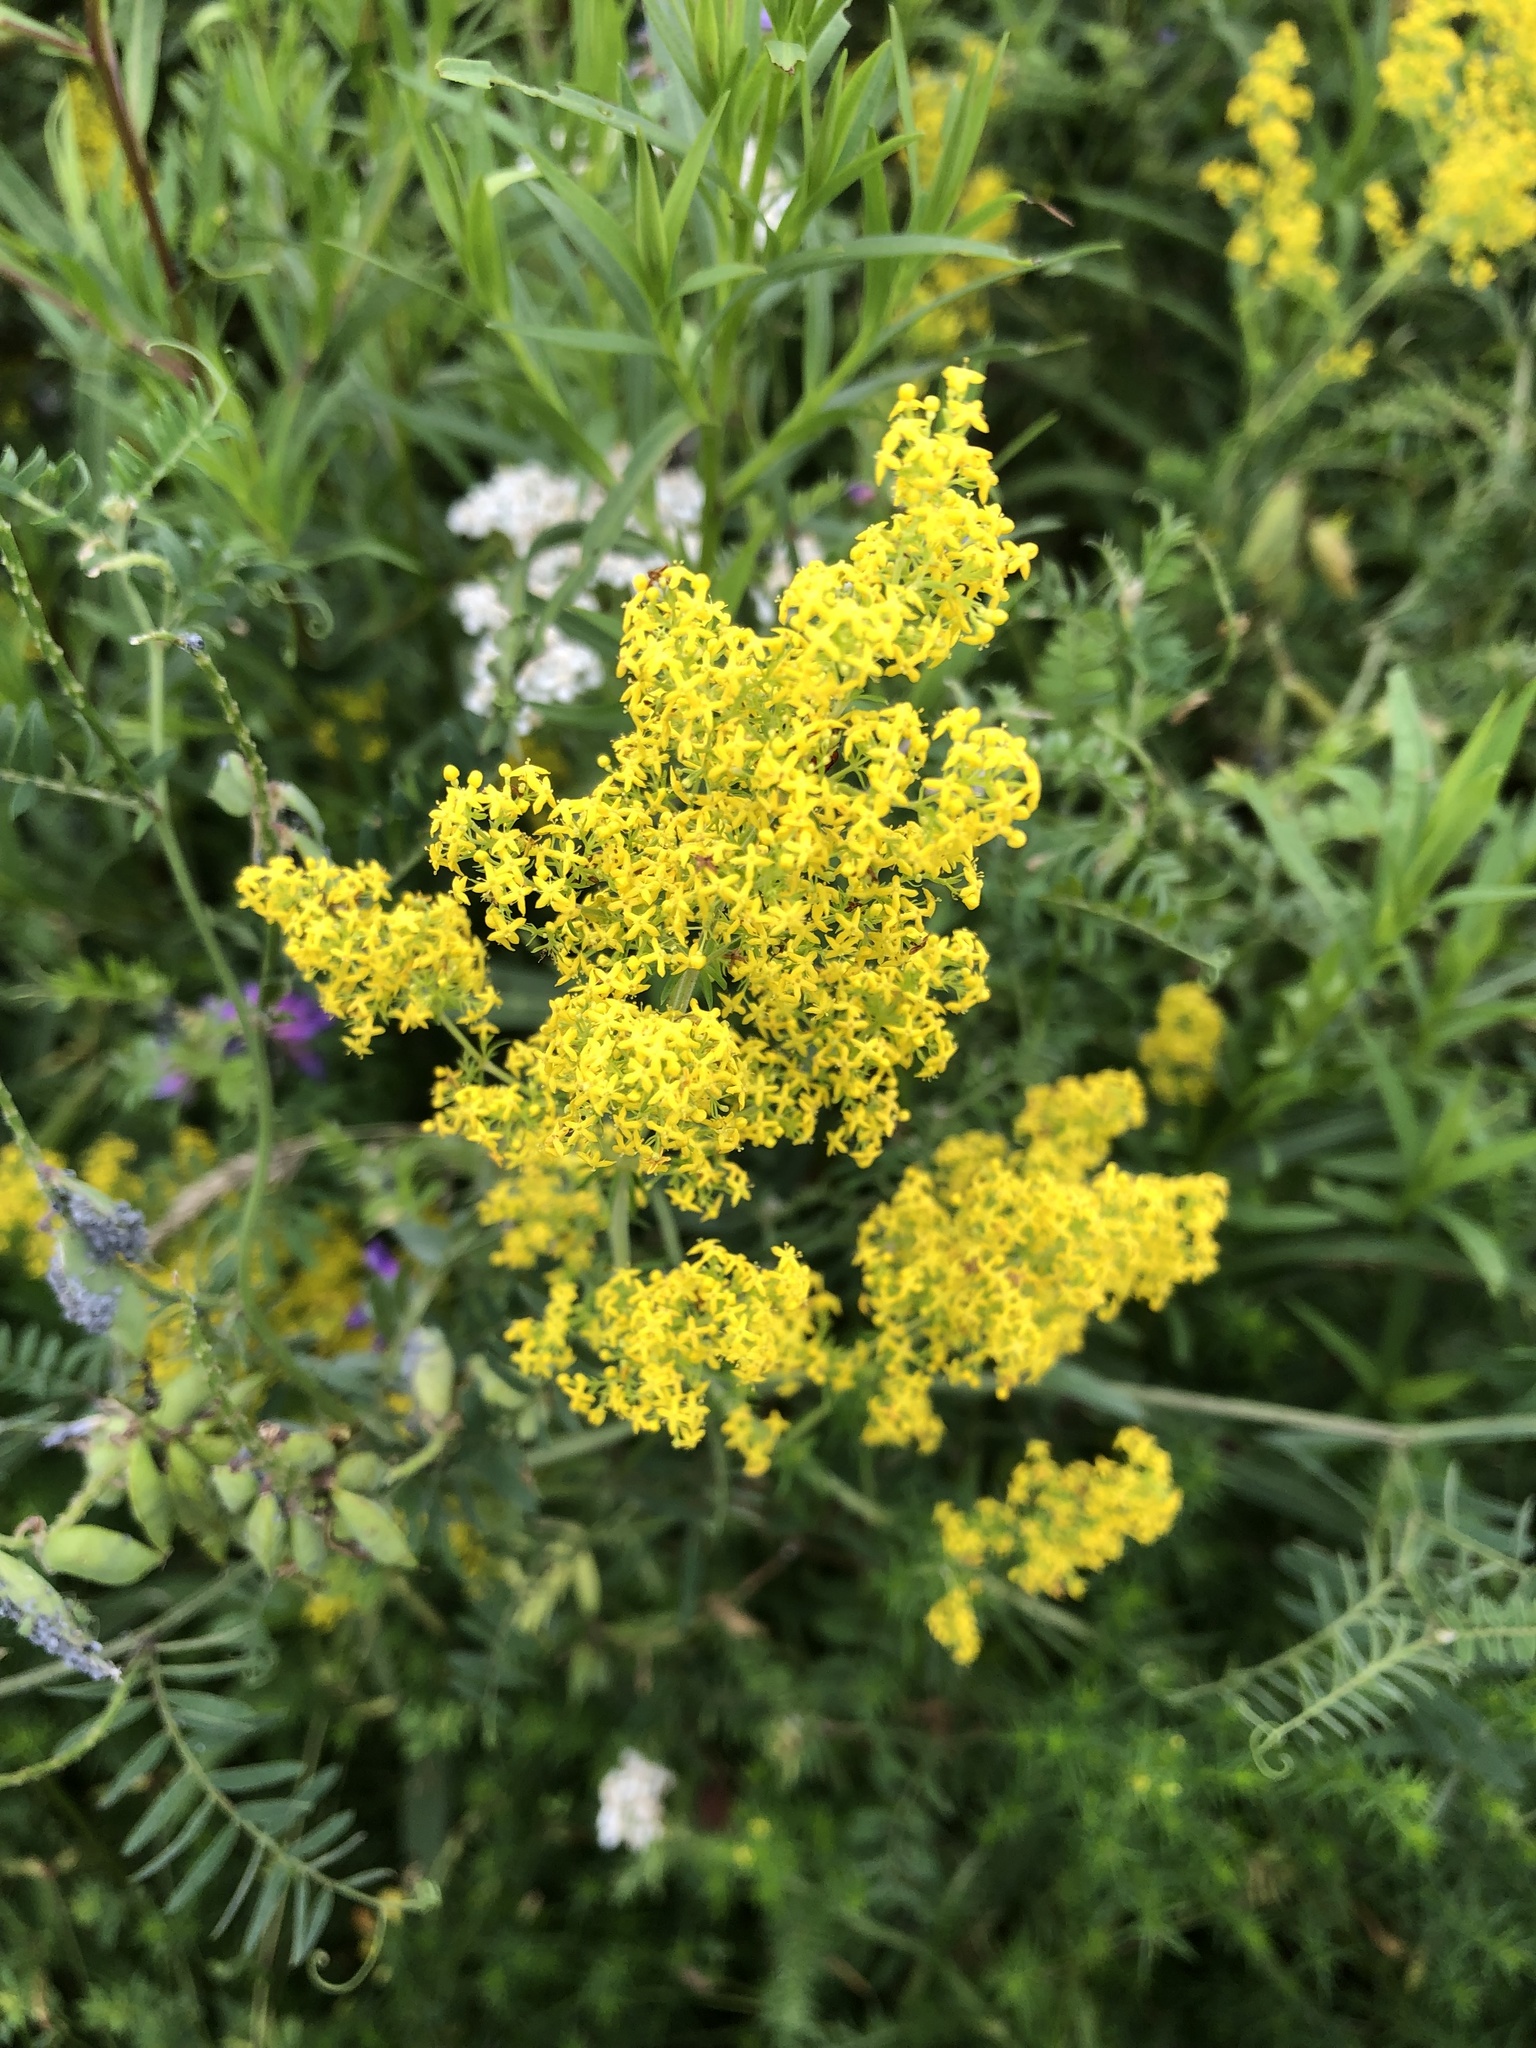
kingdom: Plantae
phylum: Tracheophyta
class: Magnoliopsida
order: Gentianales
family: Rubiaceae
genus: Galium
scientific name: Galium verum
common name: Lady's bedstraw
